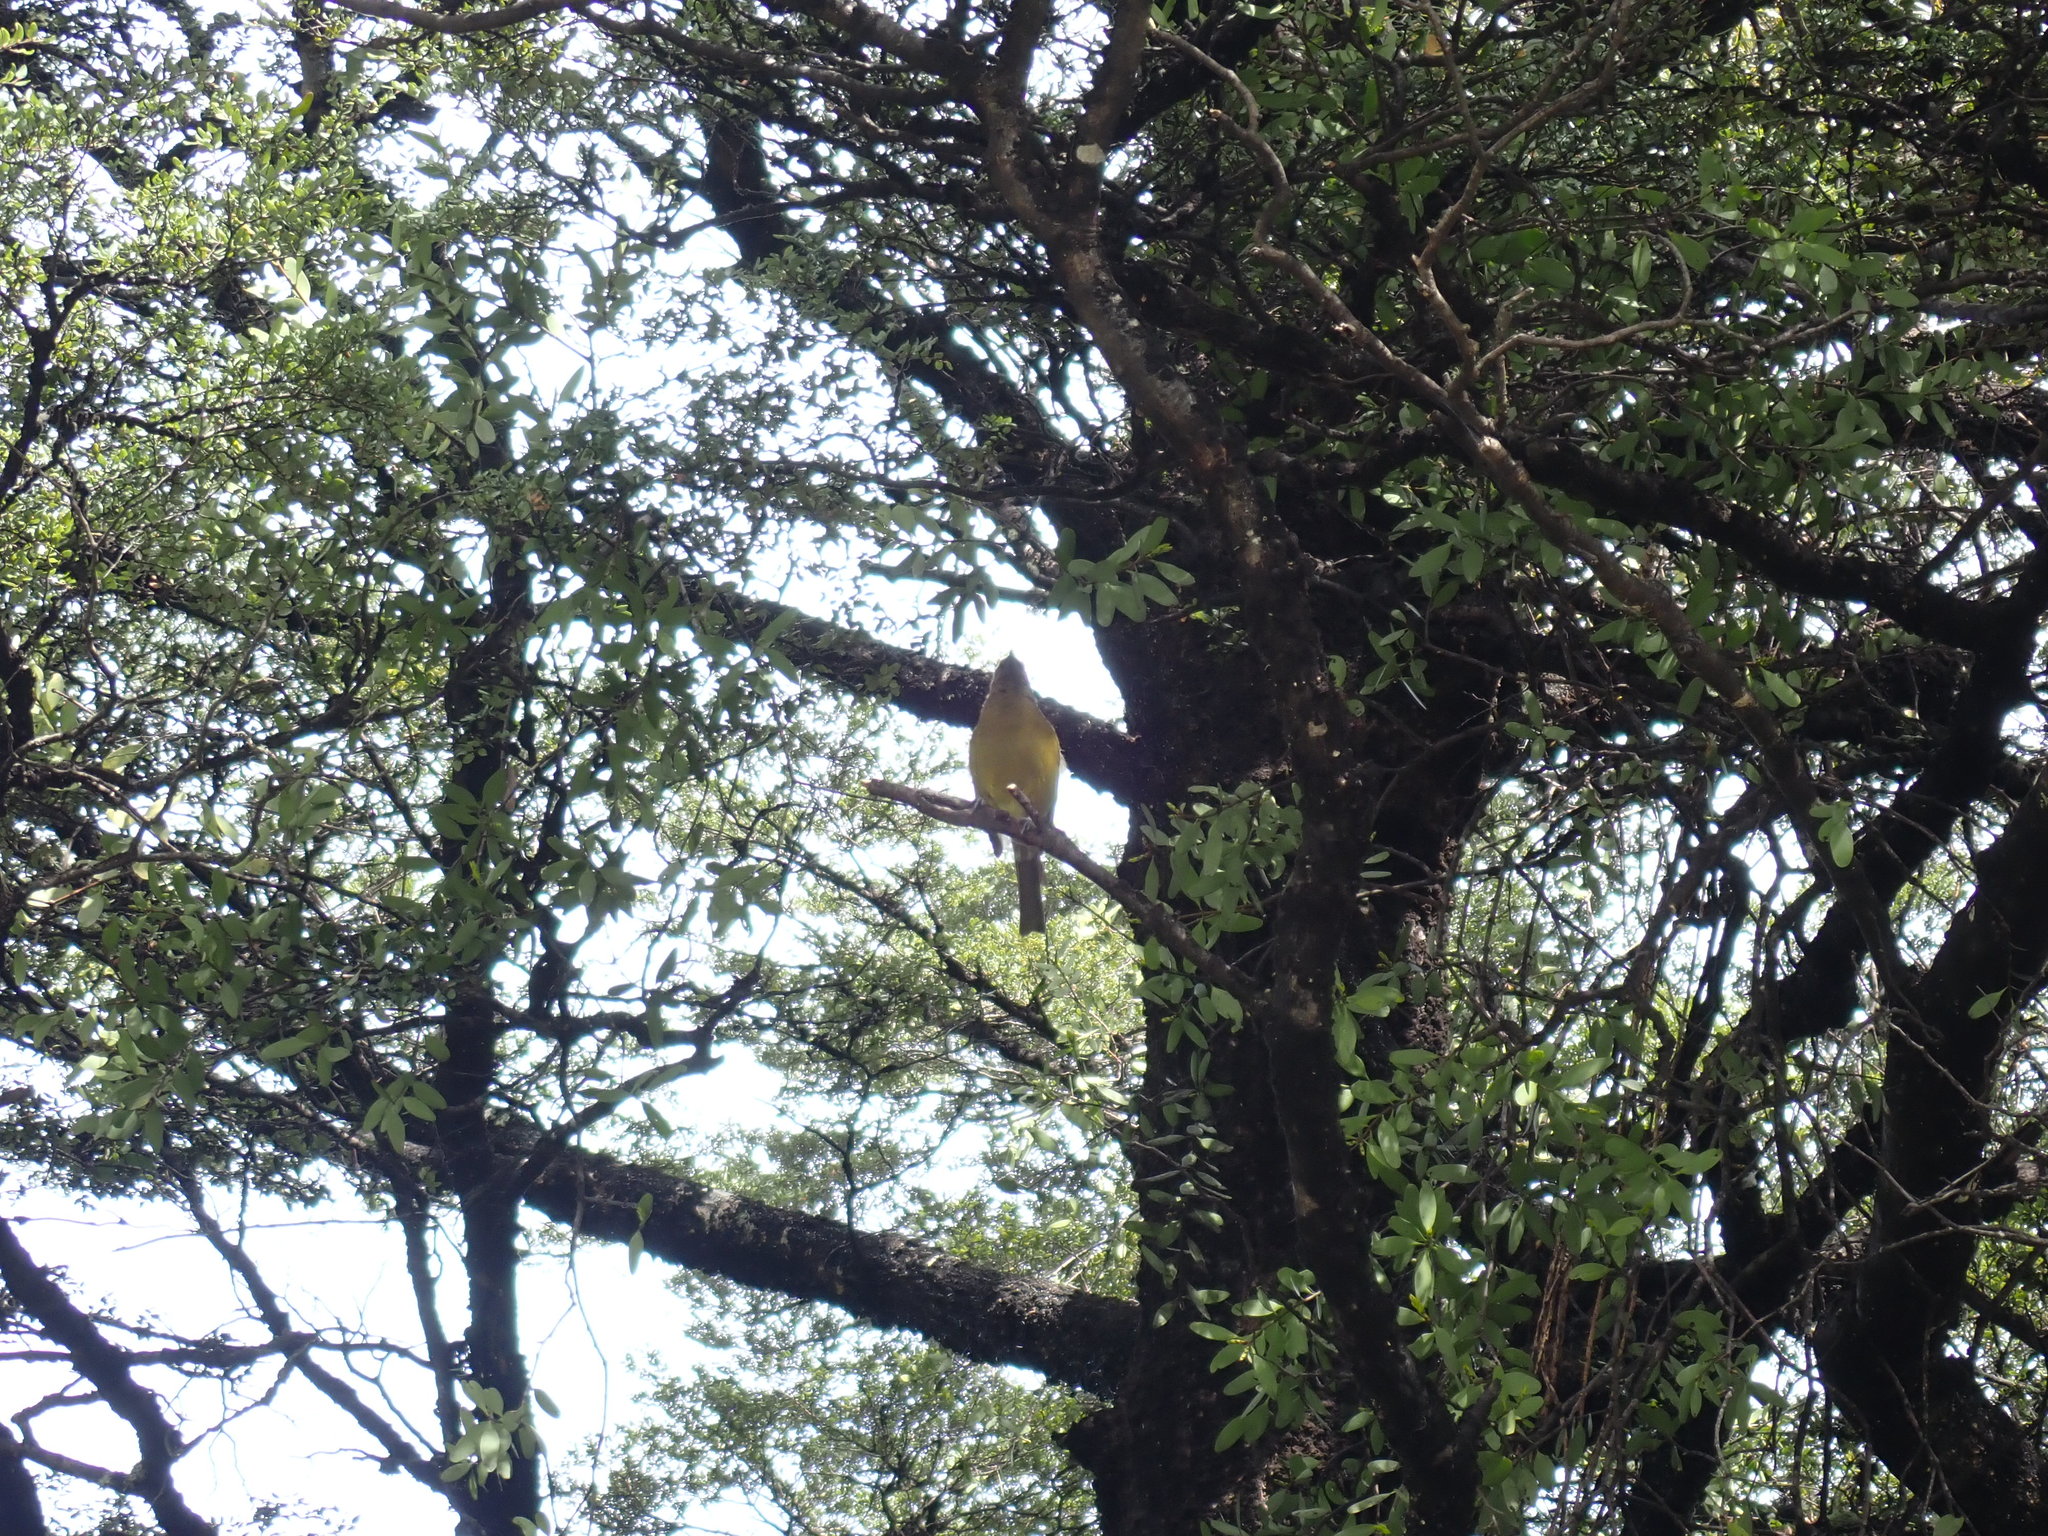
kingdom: Animalia
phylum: Chordata
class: Aves
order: Passeriformes
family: Meliphagidae
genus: Anthornis
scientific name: Anthornis melanura
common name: New zealand bellbird
